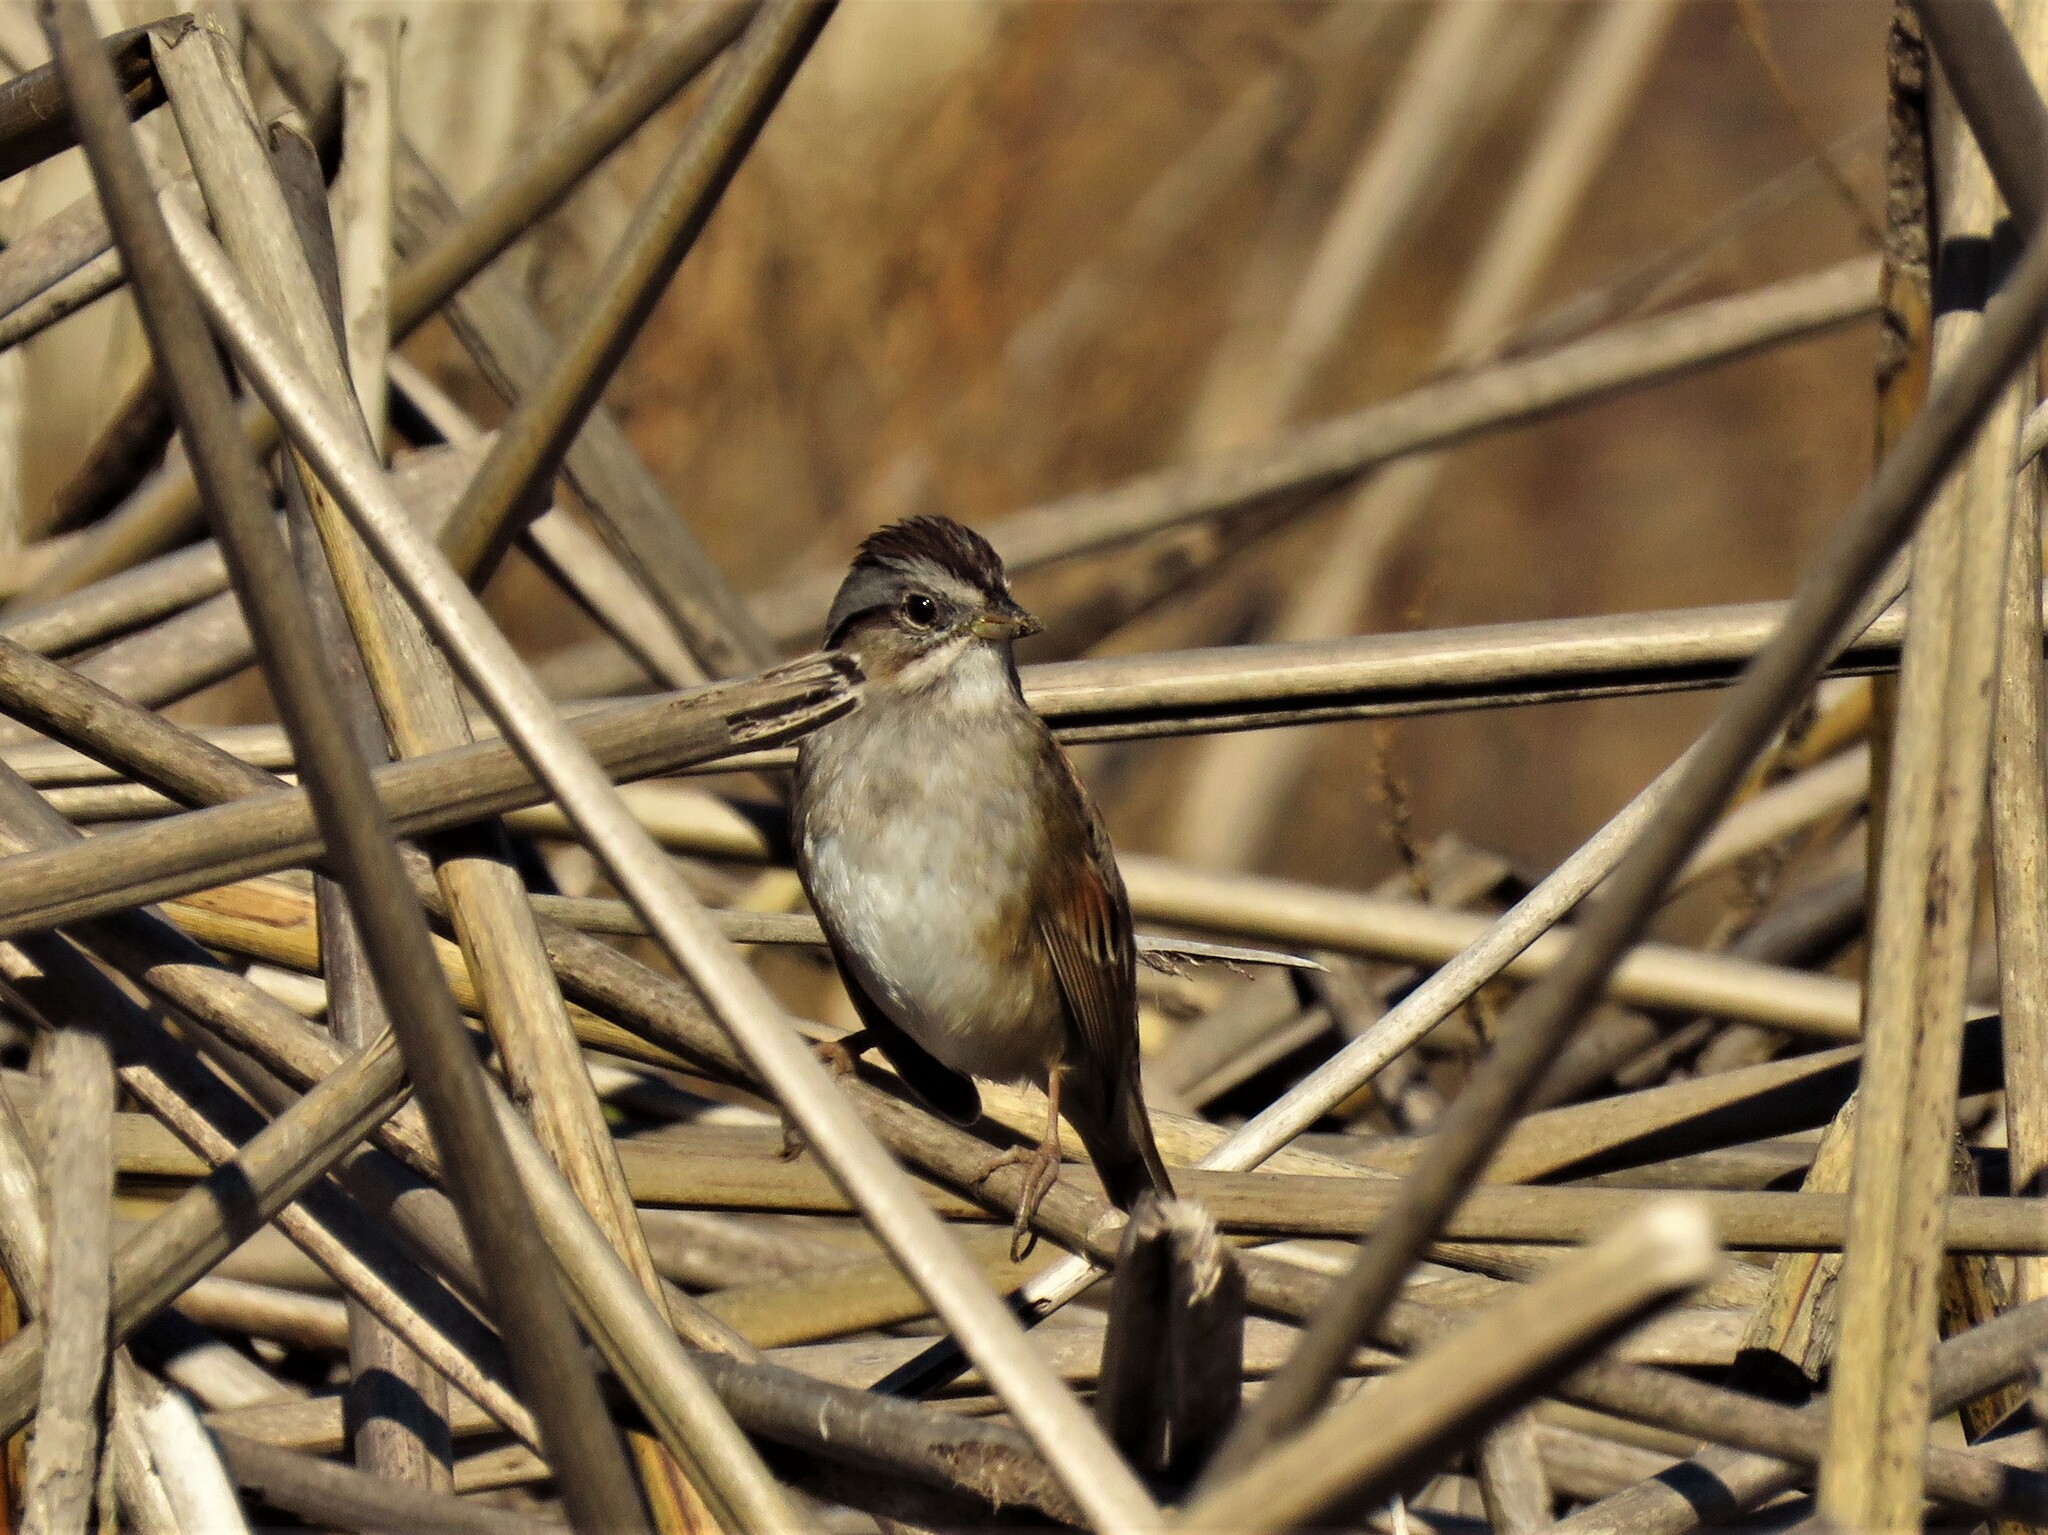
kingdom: Animalia
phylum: Chordata
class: Aves
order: Passeriformes
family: Passerellidae
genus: Melospiza
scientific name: Melospiza georgiana
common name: Swamp sparrow
